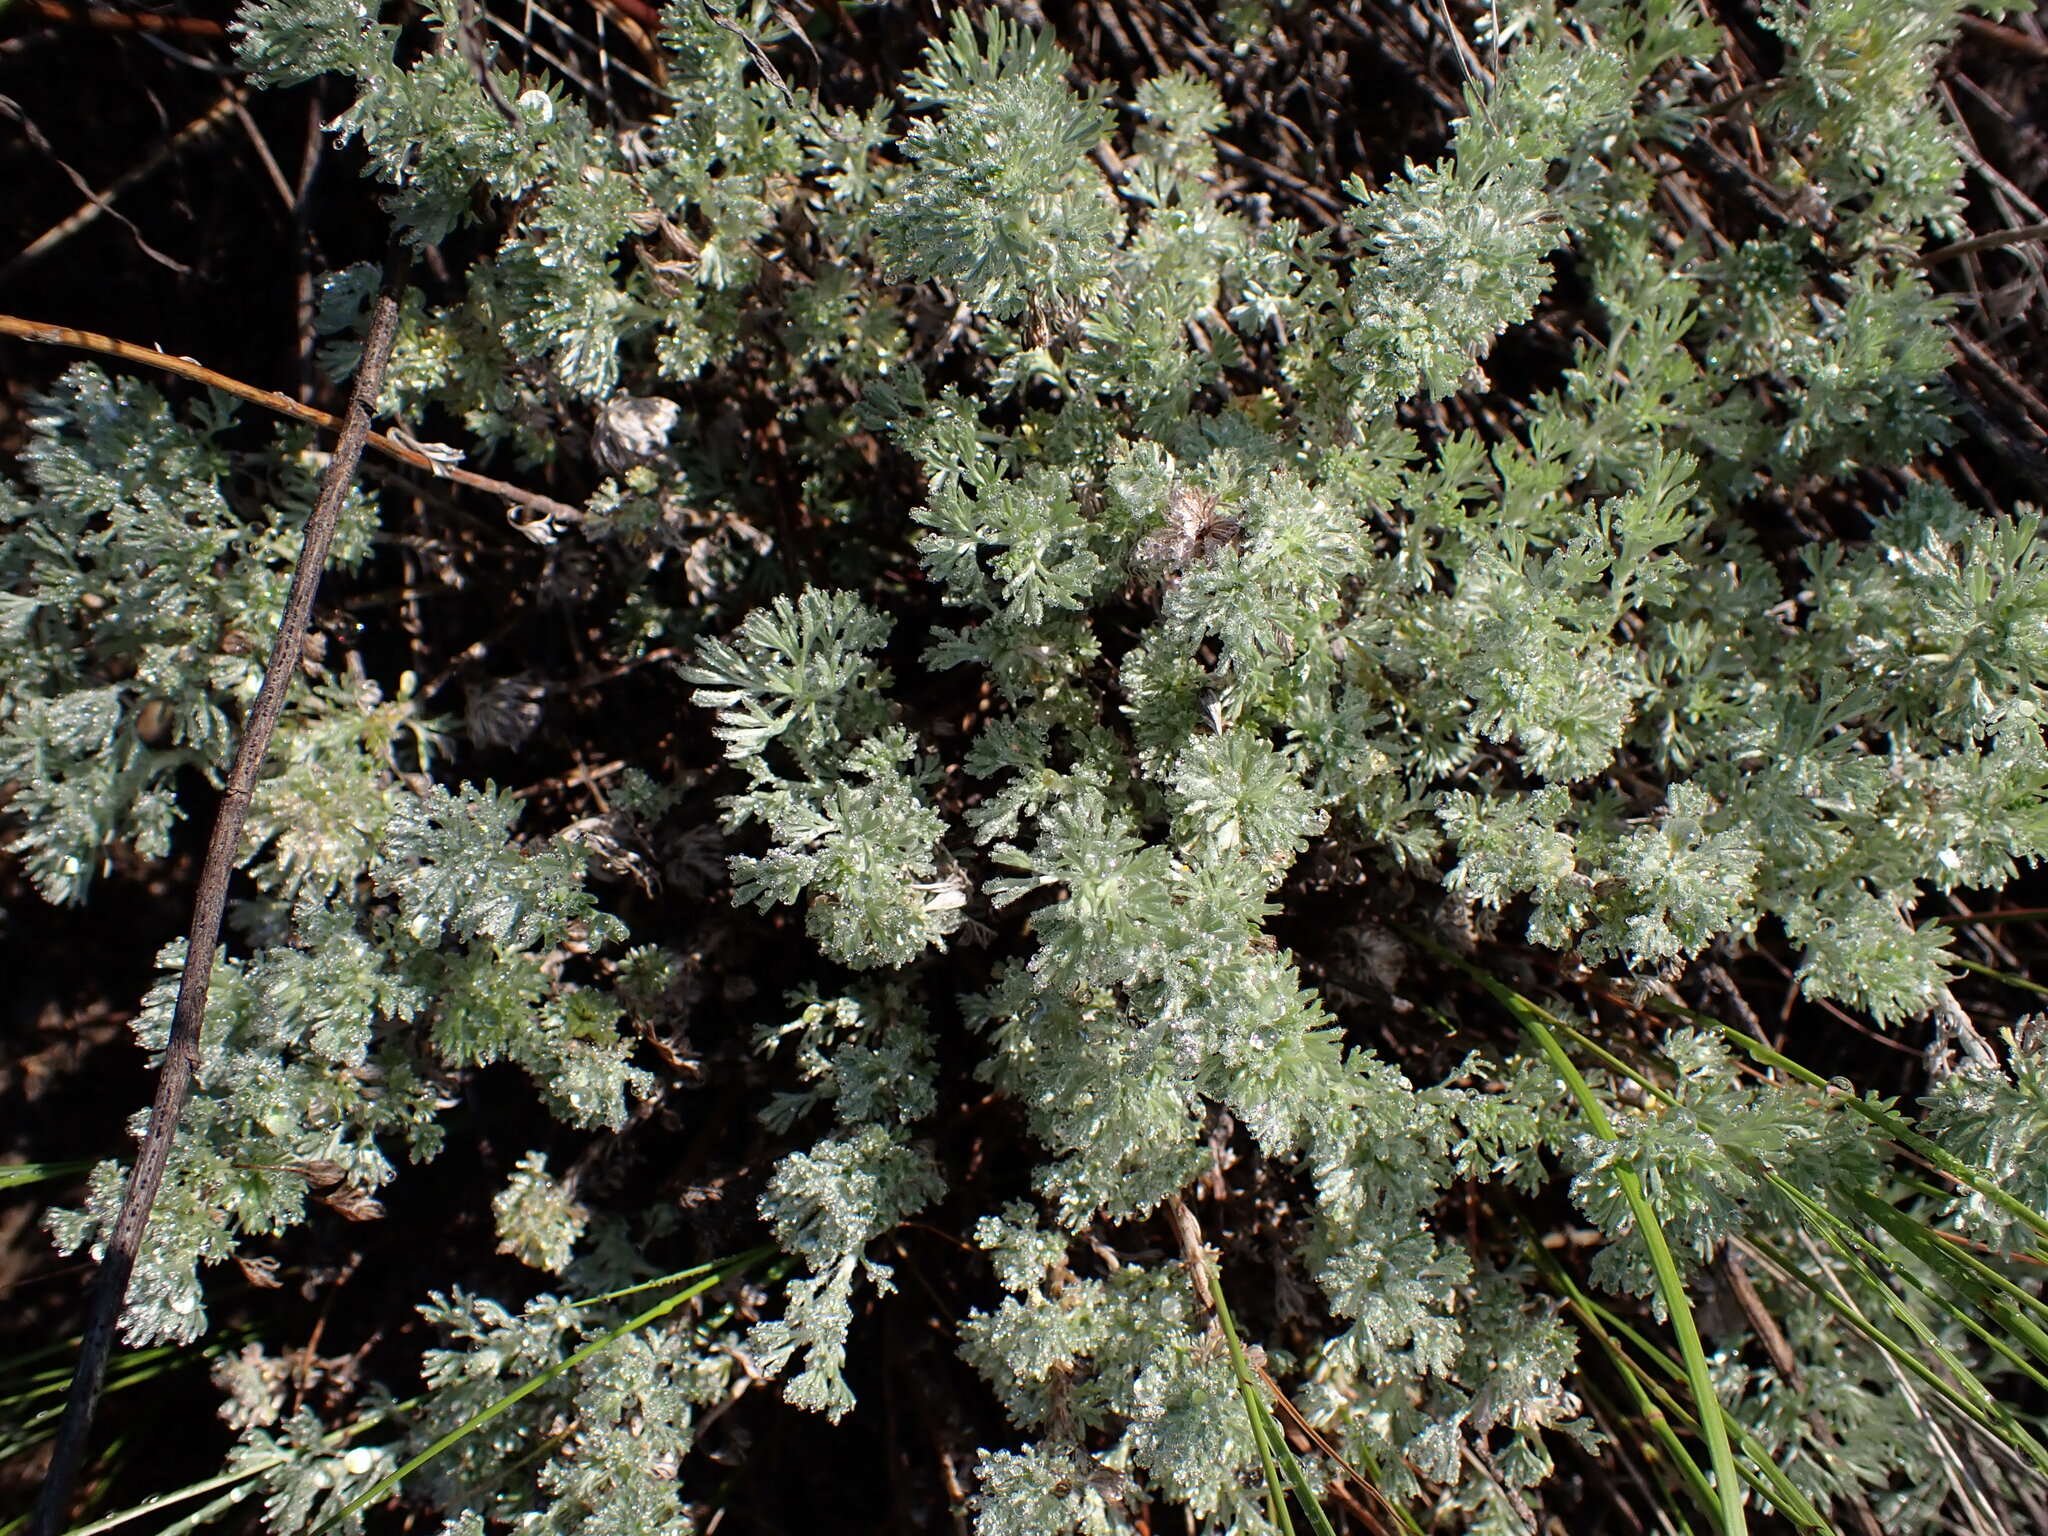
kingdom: Plantae
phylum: Tracheophyta
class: Magnoliopsida
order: Asterales
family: Asteraceae
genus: Artemisia
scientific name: Artemisia frigida
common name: Prairie sagewort
